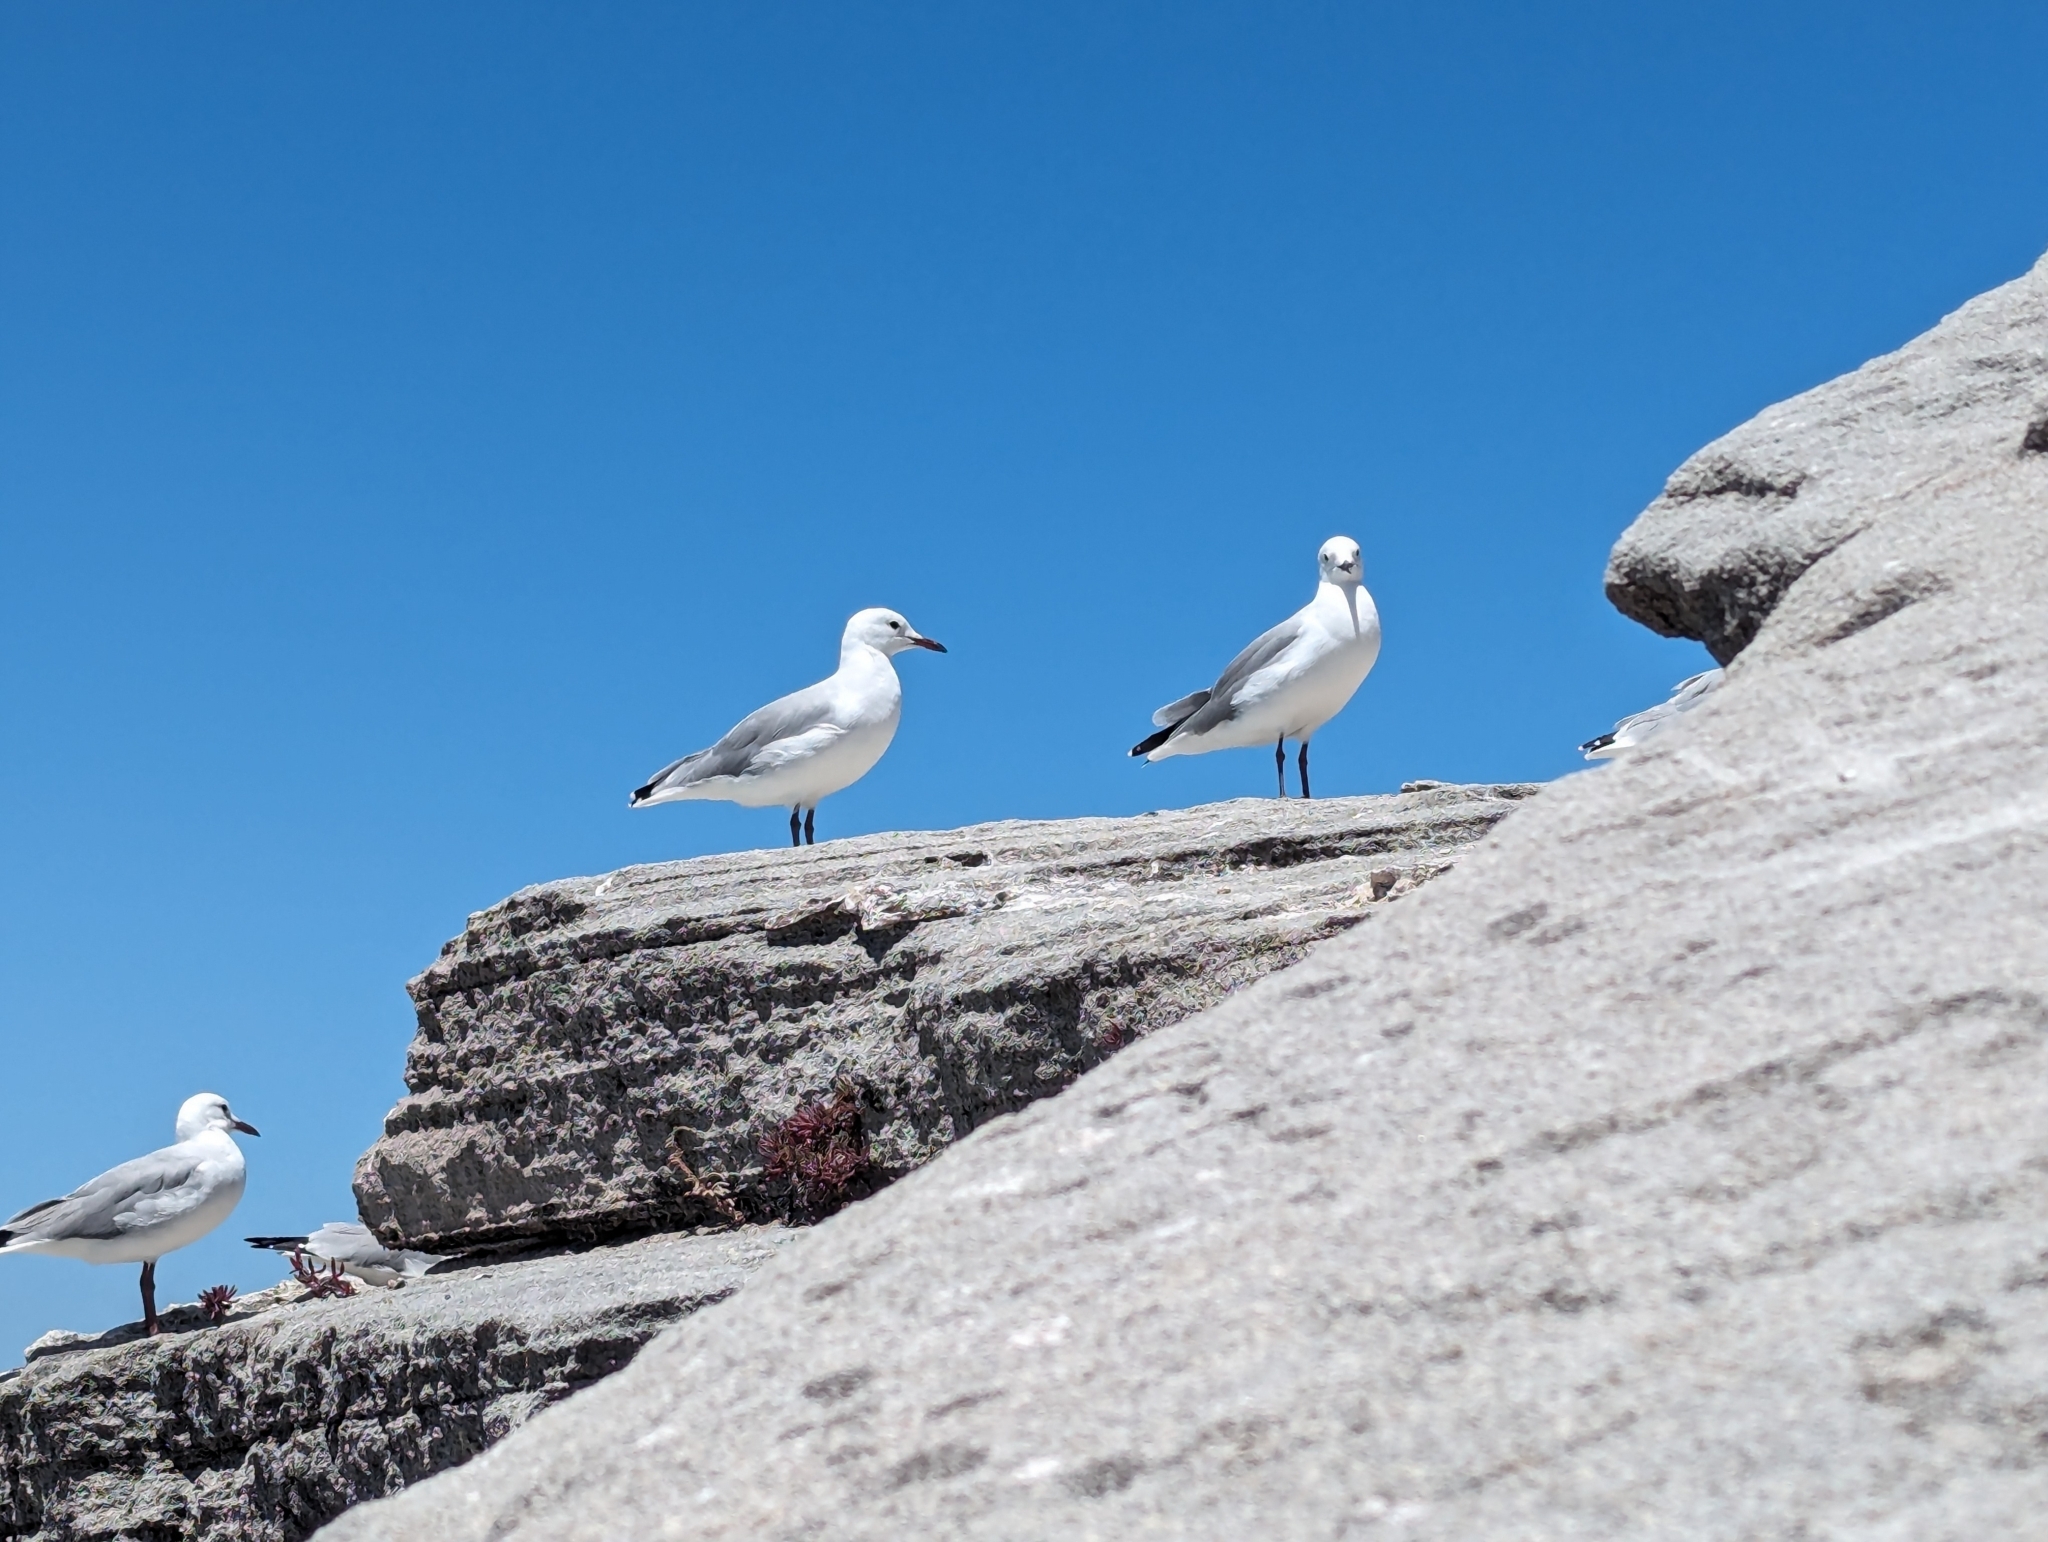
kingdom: Animalia
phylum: Chordata
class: Aves
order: Charadriiformes
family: Laridae
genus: Chroicocephalus
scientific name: Chroicocephalus hartlaubii
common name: Hartlaub's gull
